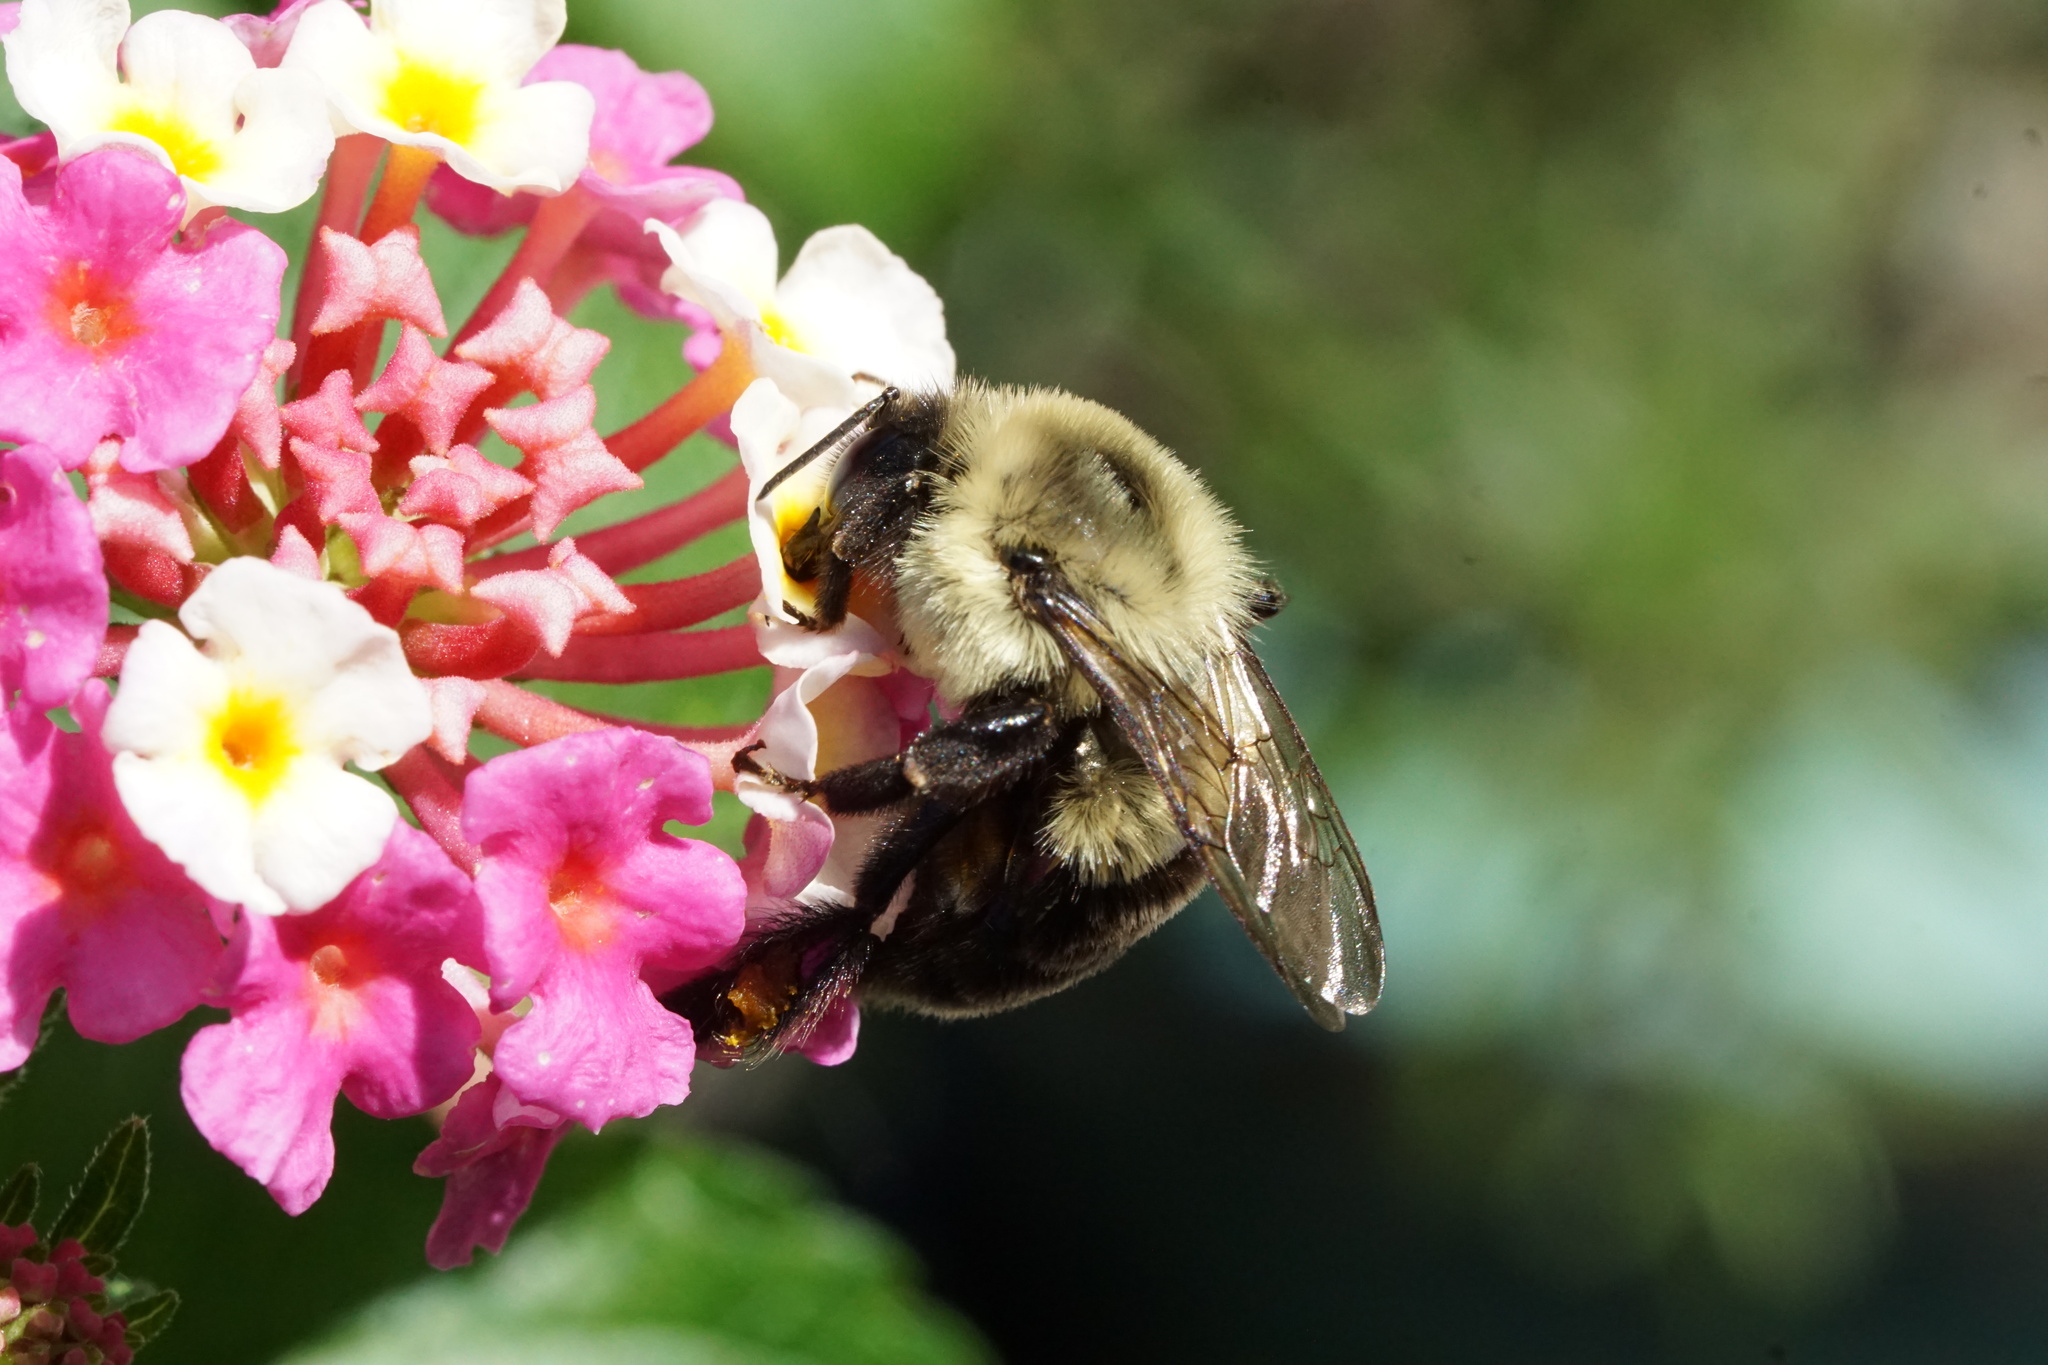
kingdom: Animalia
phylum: Arthropoda
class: Insecta
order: Hymenoptera
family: Apidae
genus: Bombus
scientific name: Bombus impatiens
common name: Common eastern bumble bee
